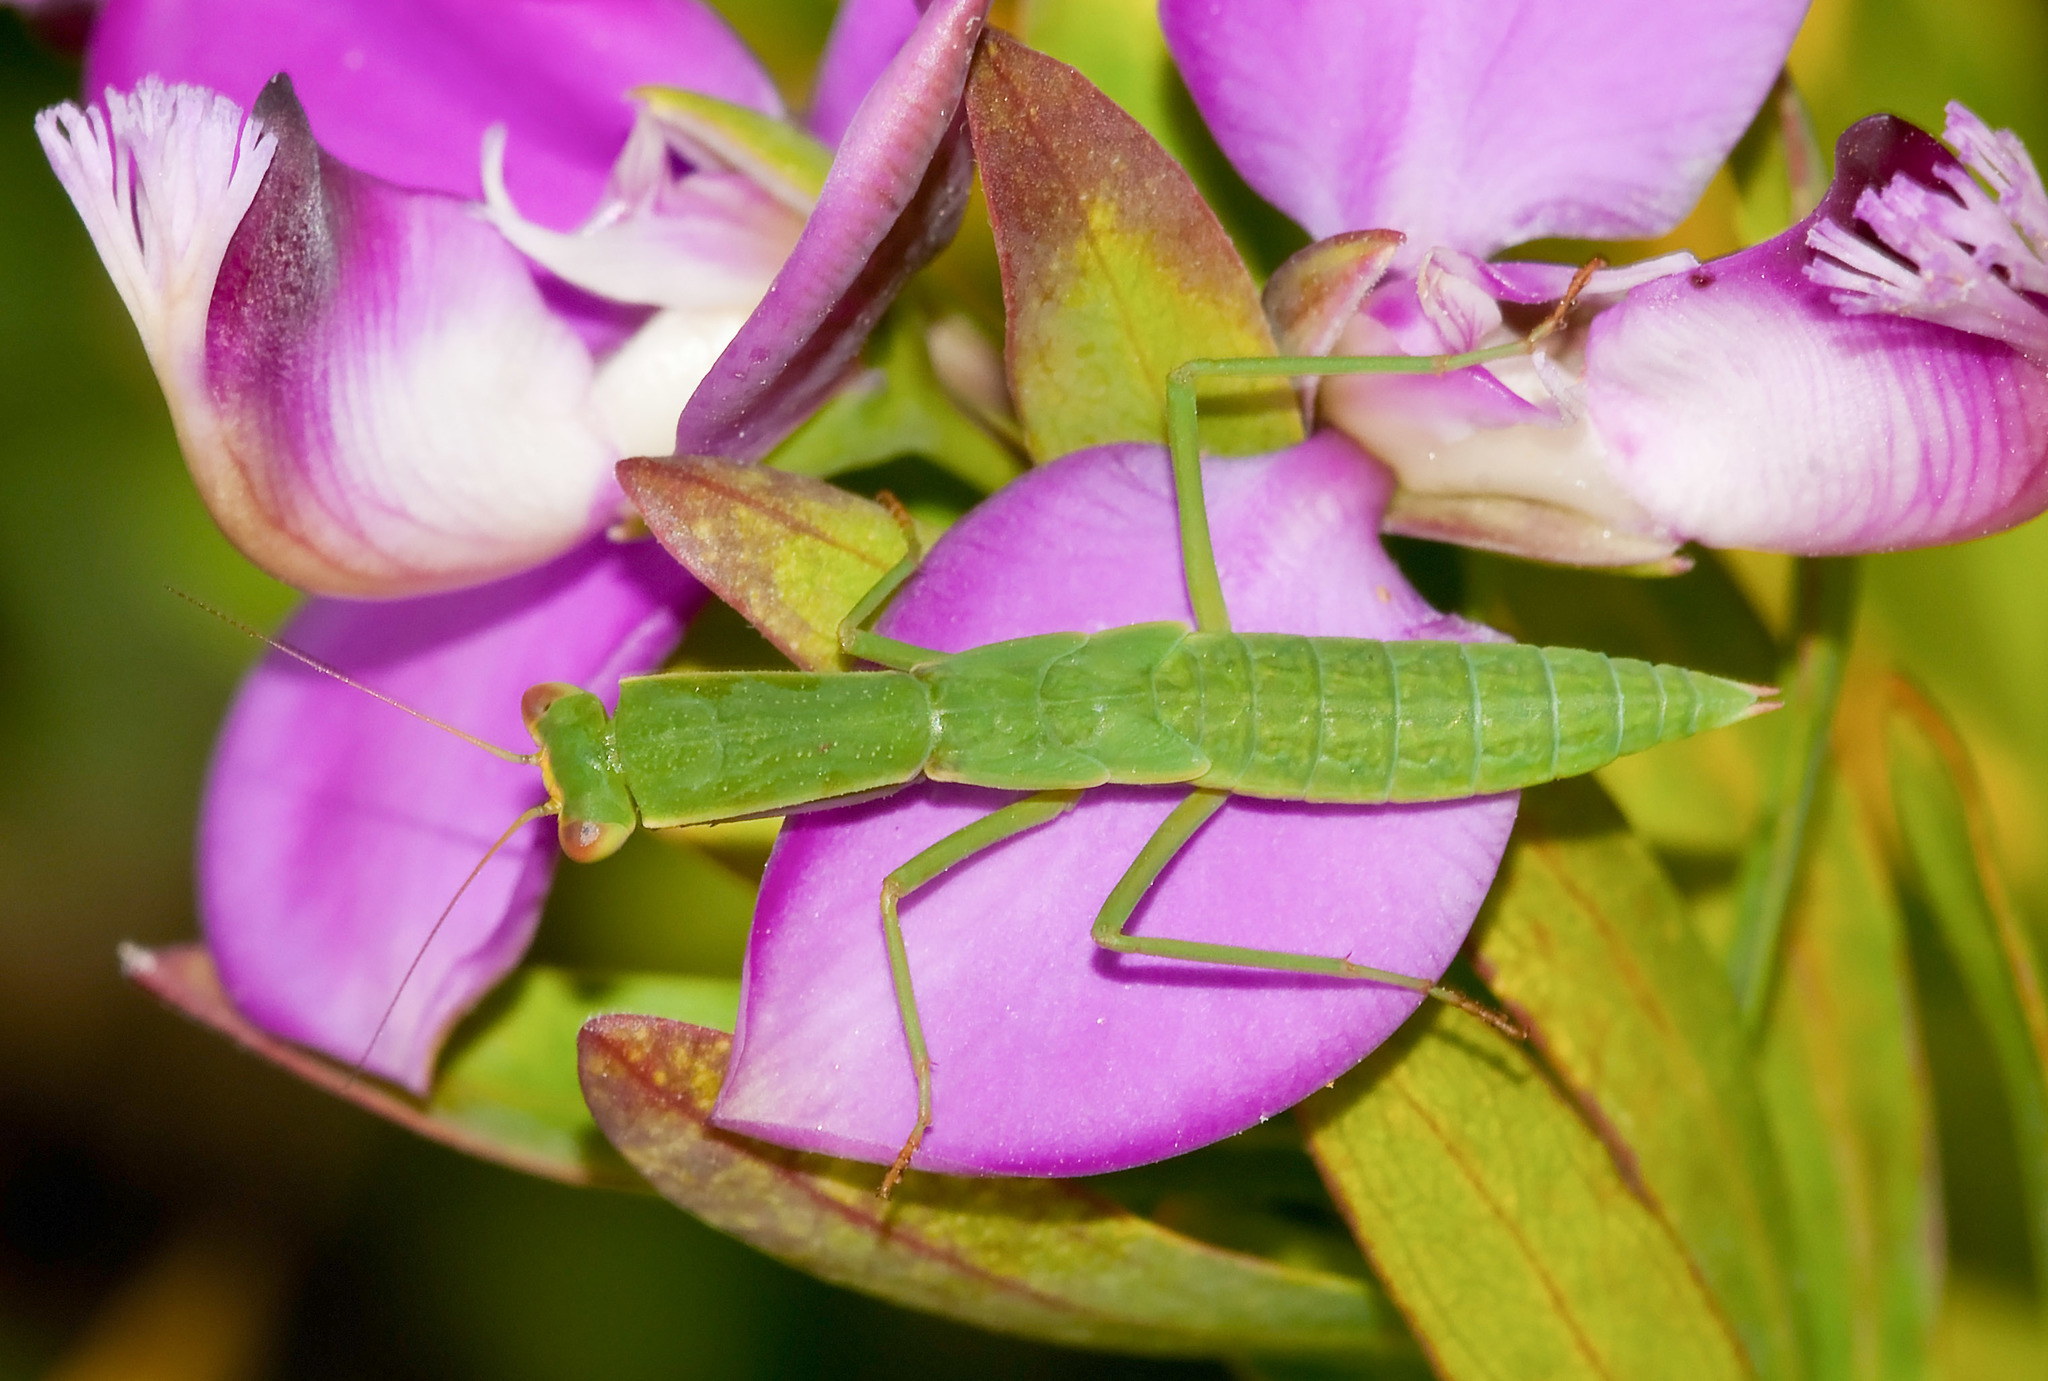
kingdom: Animalia
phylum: Arthropoda
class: Insecta
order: Mantodea
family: Mantidae
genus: Orthodera
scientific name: Orthodera ministralis
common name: Mantis
